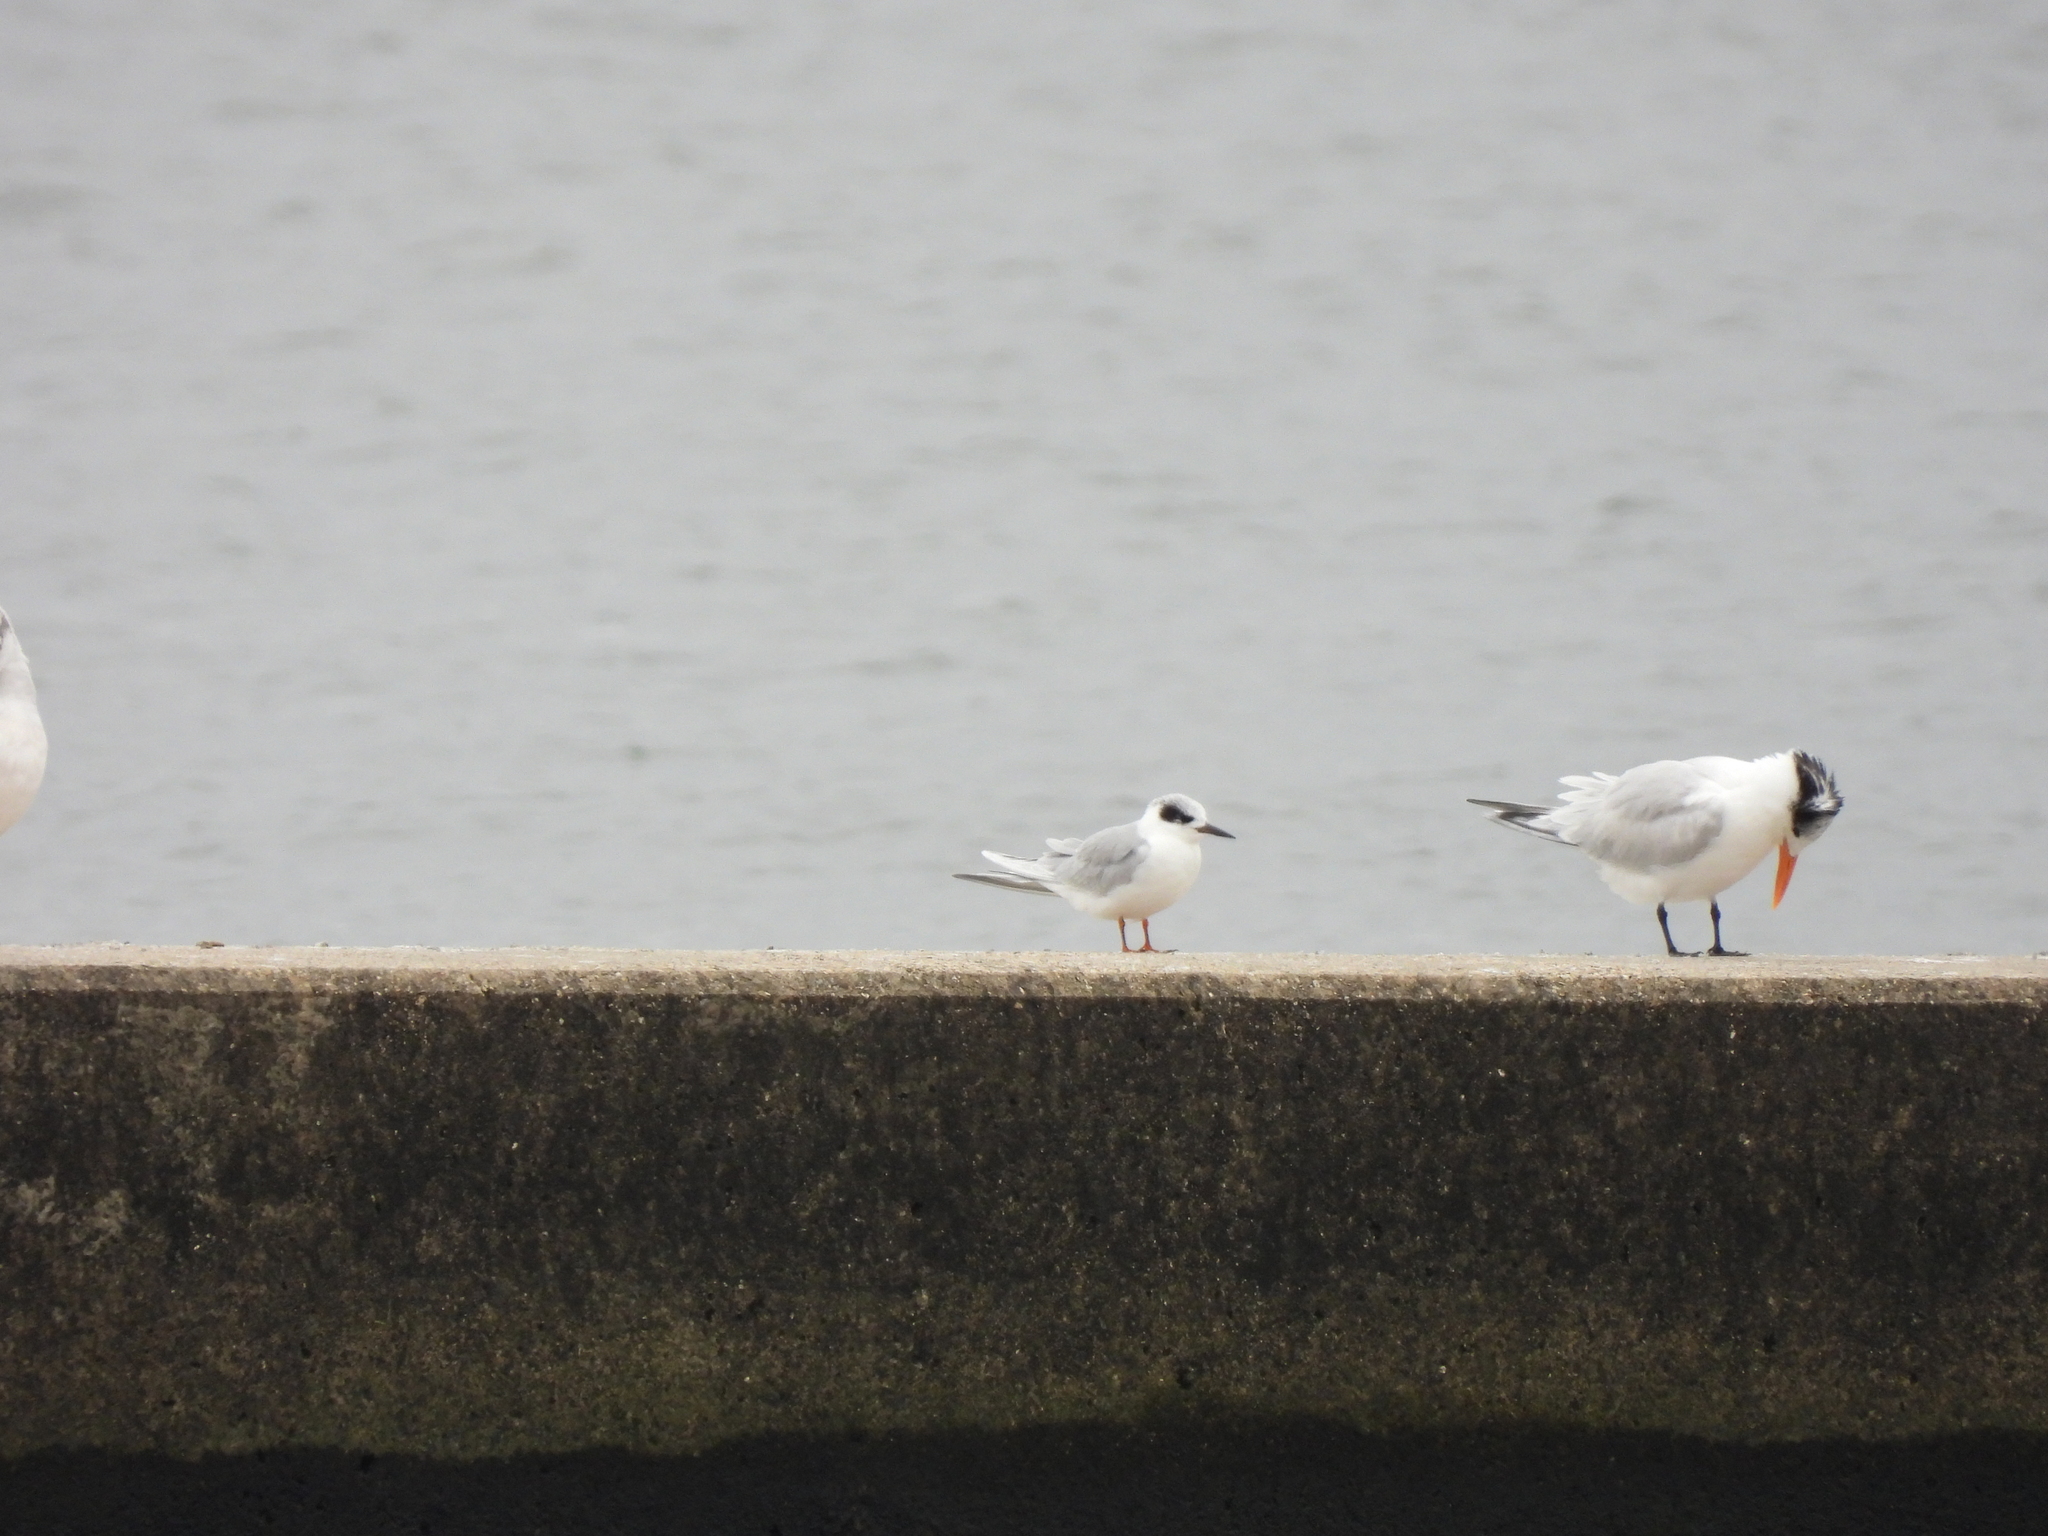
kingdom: Animalia
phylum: Chordata
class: Aves
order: Charadriiformes
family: Laridae
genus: Sterna
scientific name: Sterna forsteri
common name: Forster's tern
